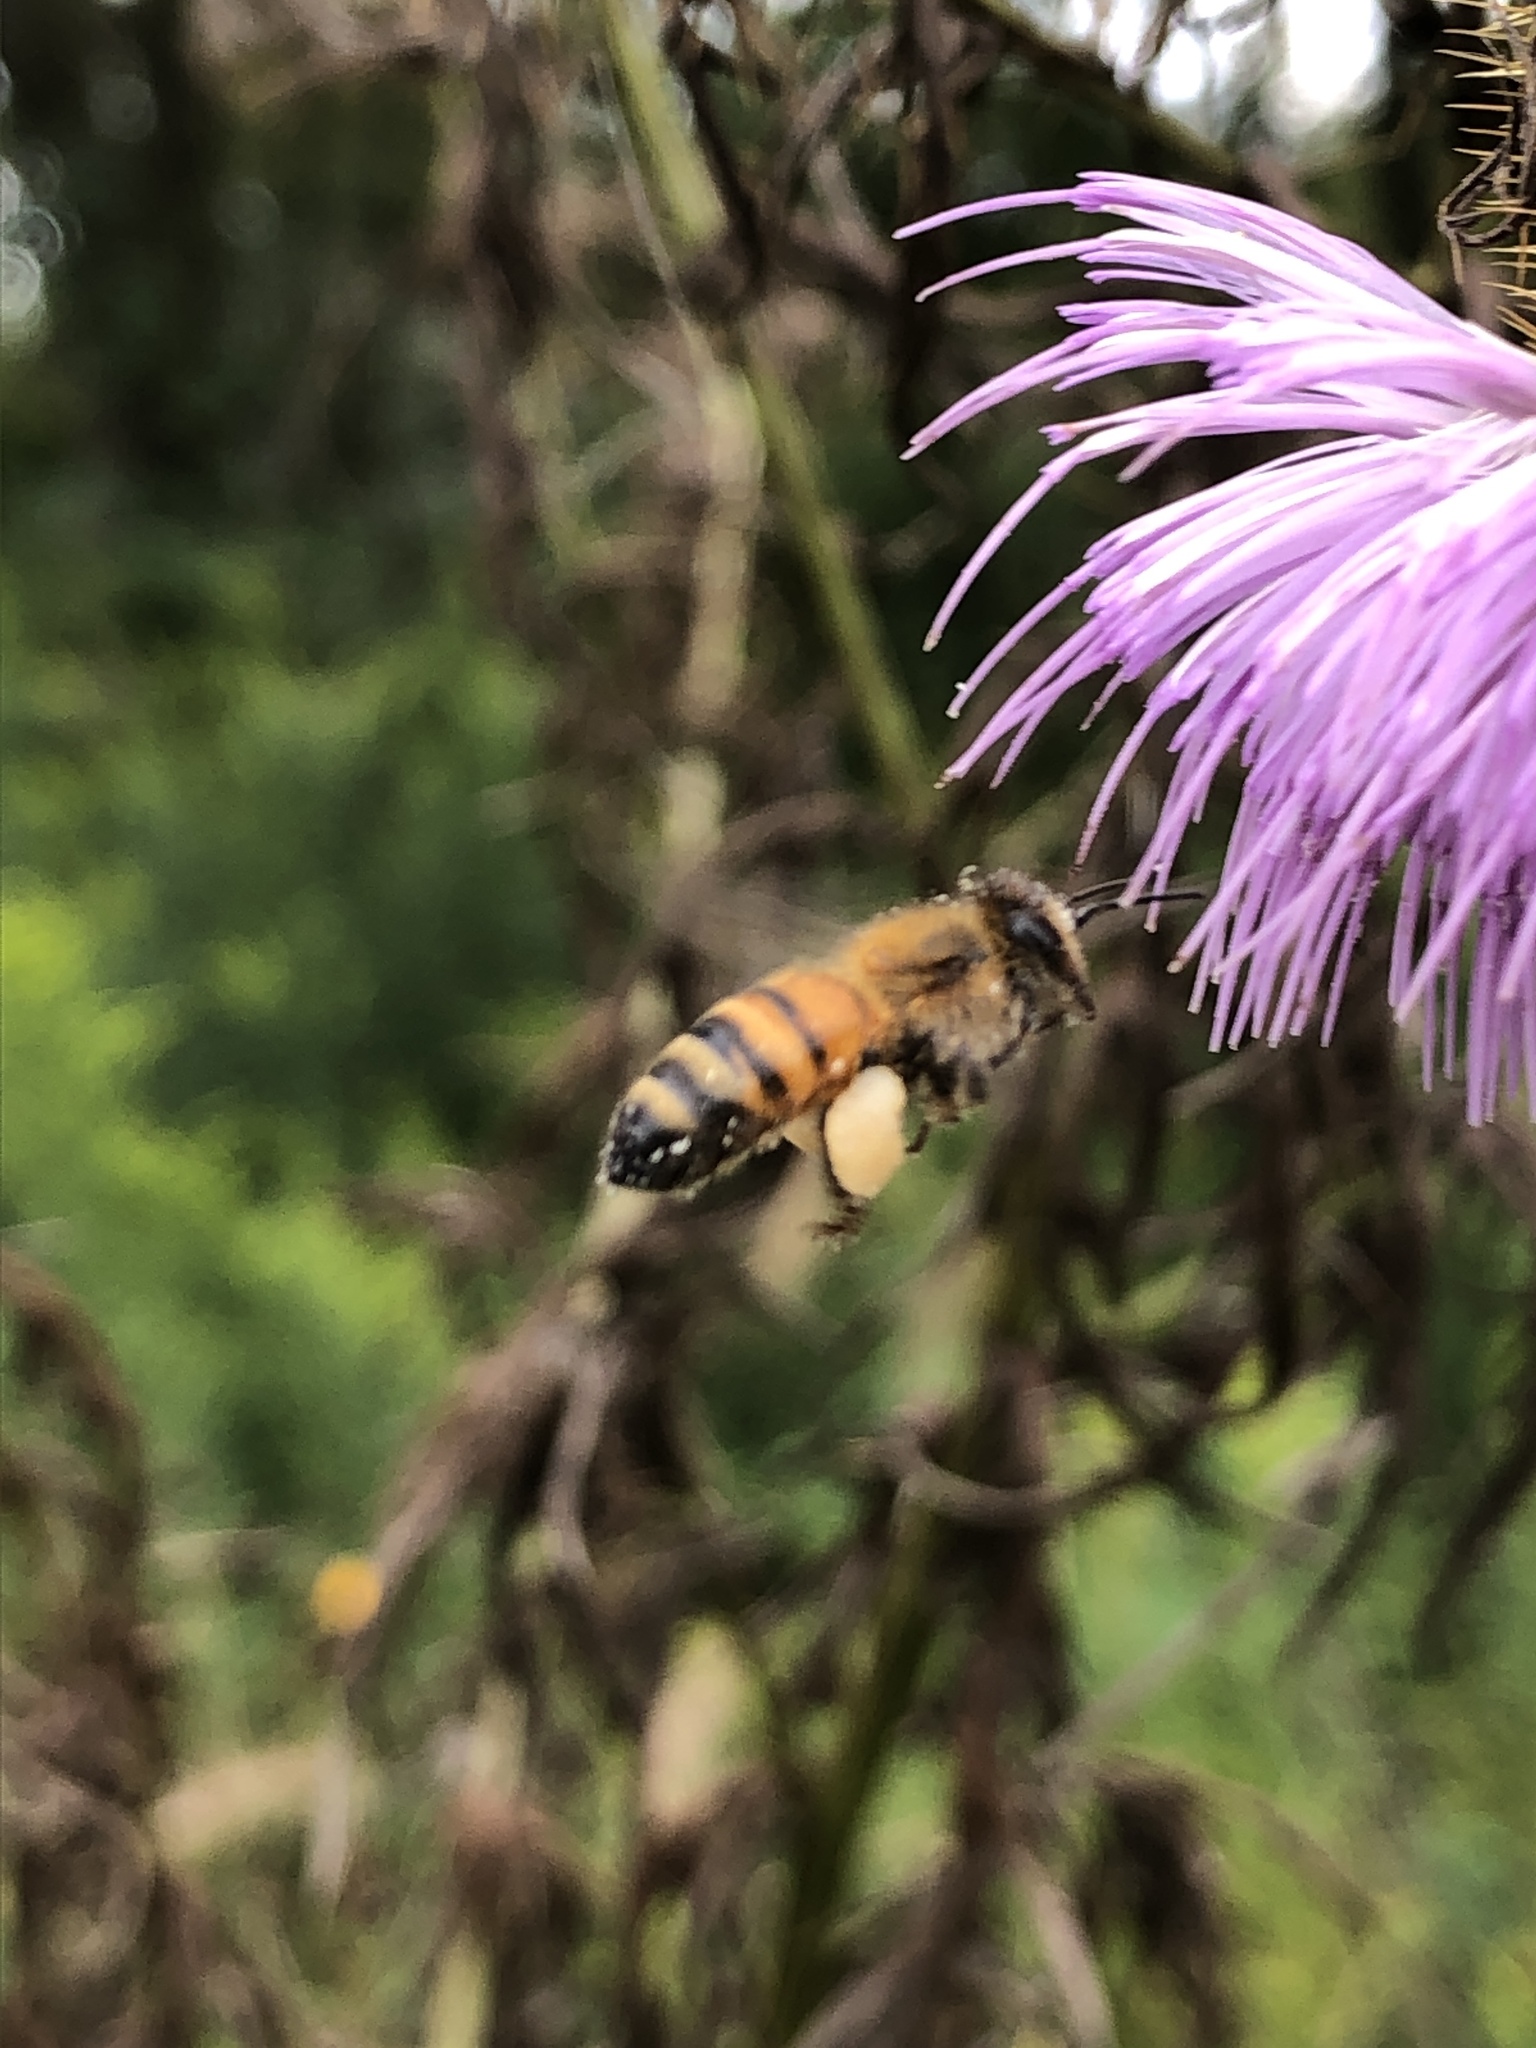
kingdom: Animalia
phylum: Arthropoda
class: Insecta
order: Hymenoptera
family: Apidae
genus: Apis
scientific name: Apis mellifera
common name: Honey bee
